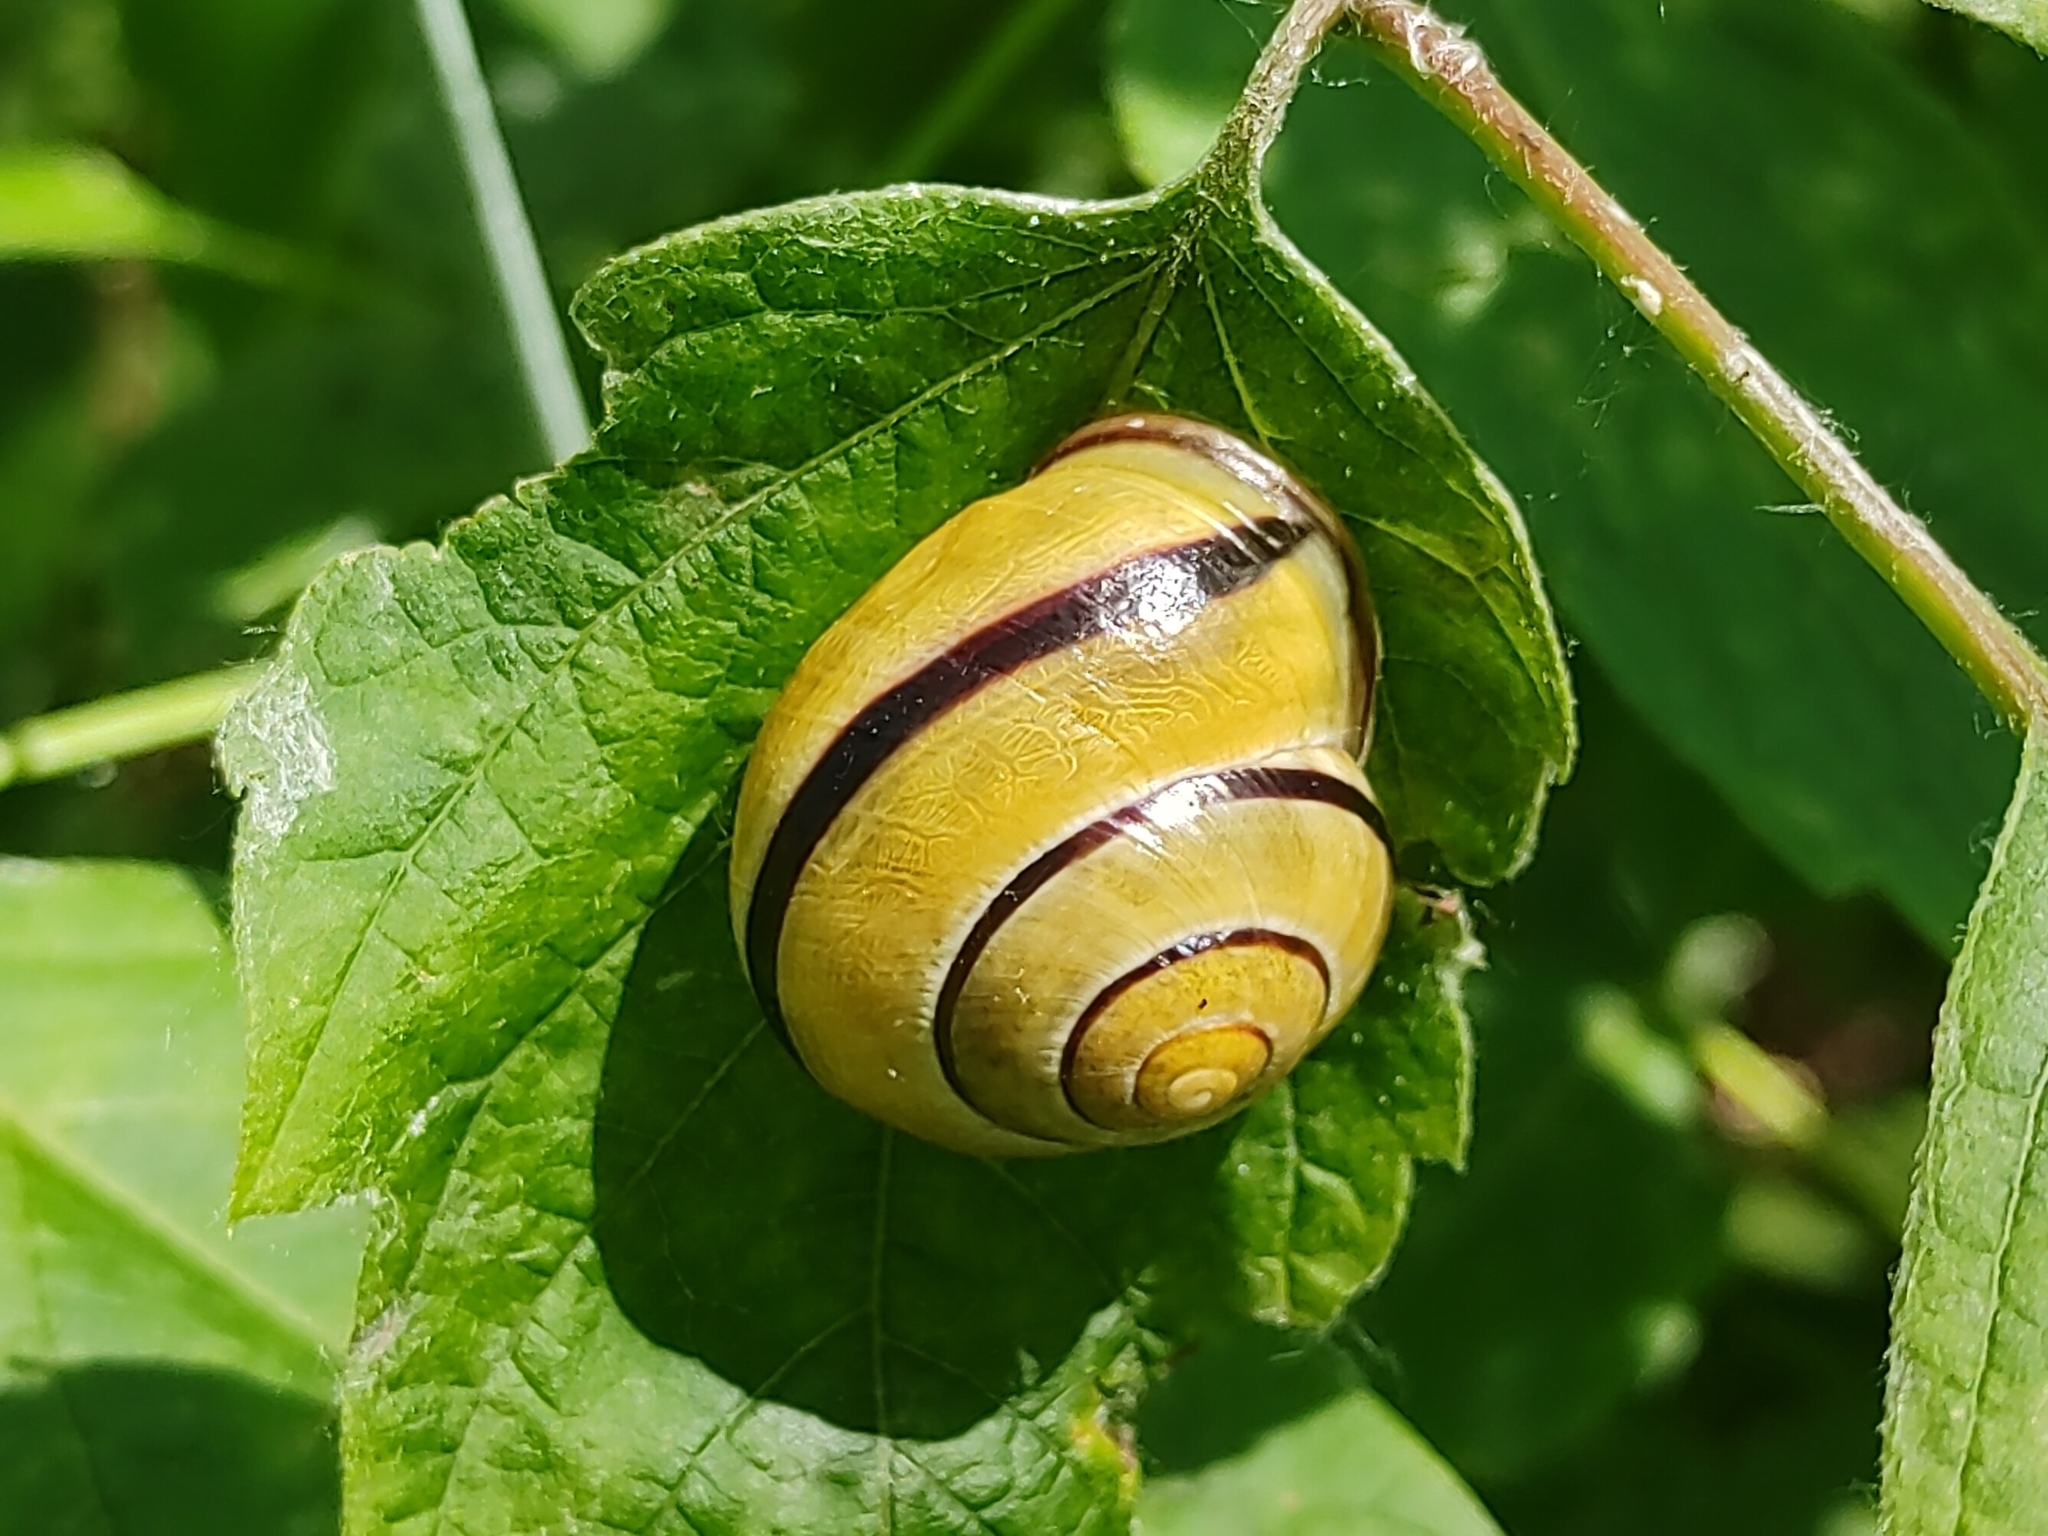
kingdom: Animalia
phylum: Mollusca
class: Gastropoda
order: Stylommatophora
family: Helicidae
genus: Cepaea
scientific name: Cepaea nemoralis
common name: Grovesnail
